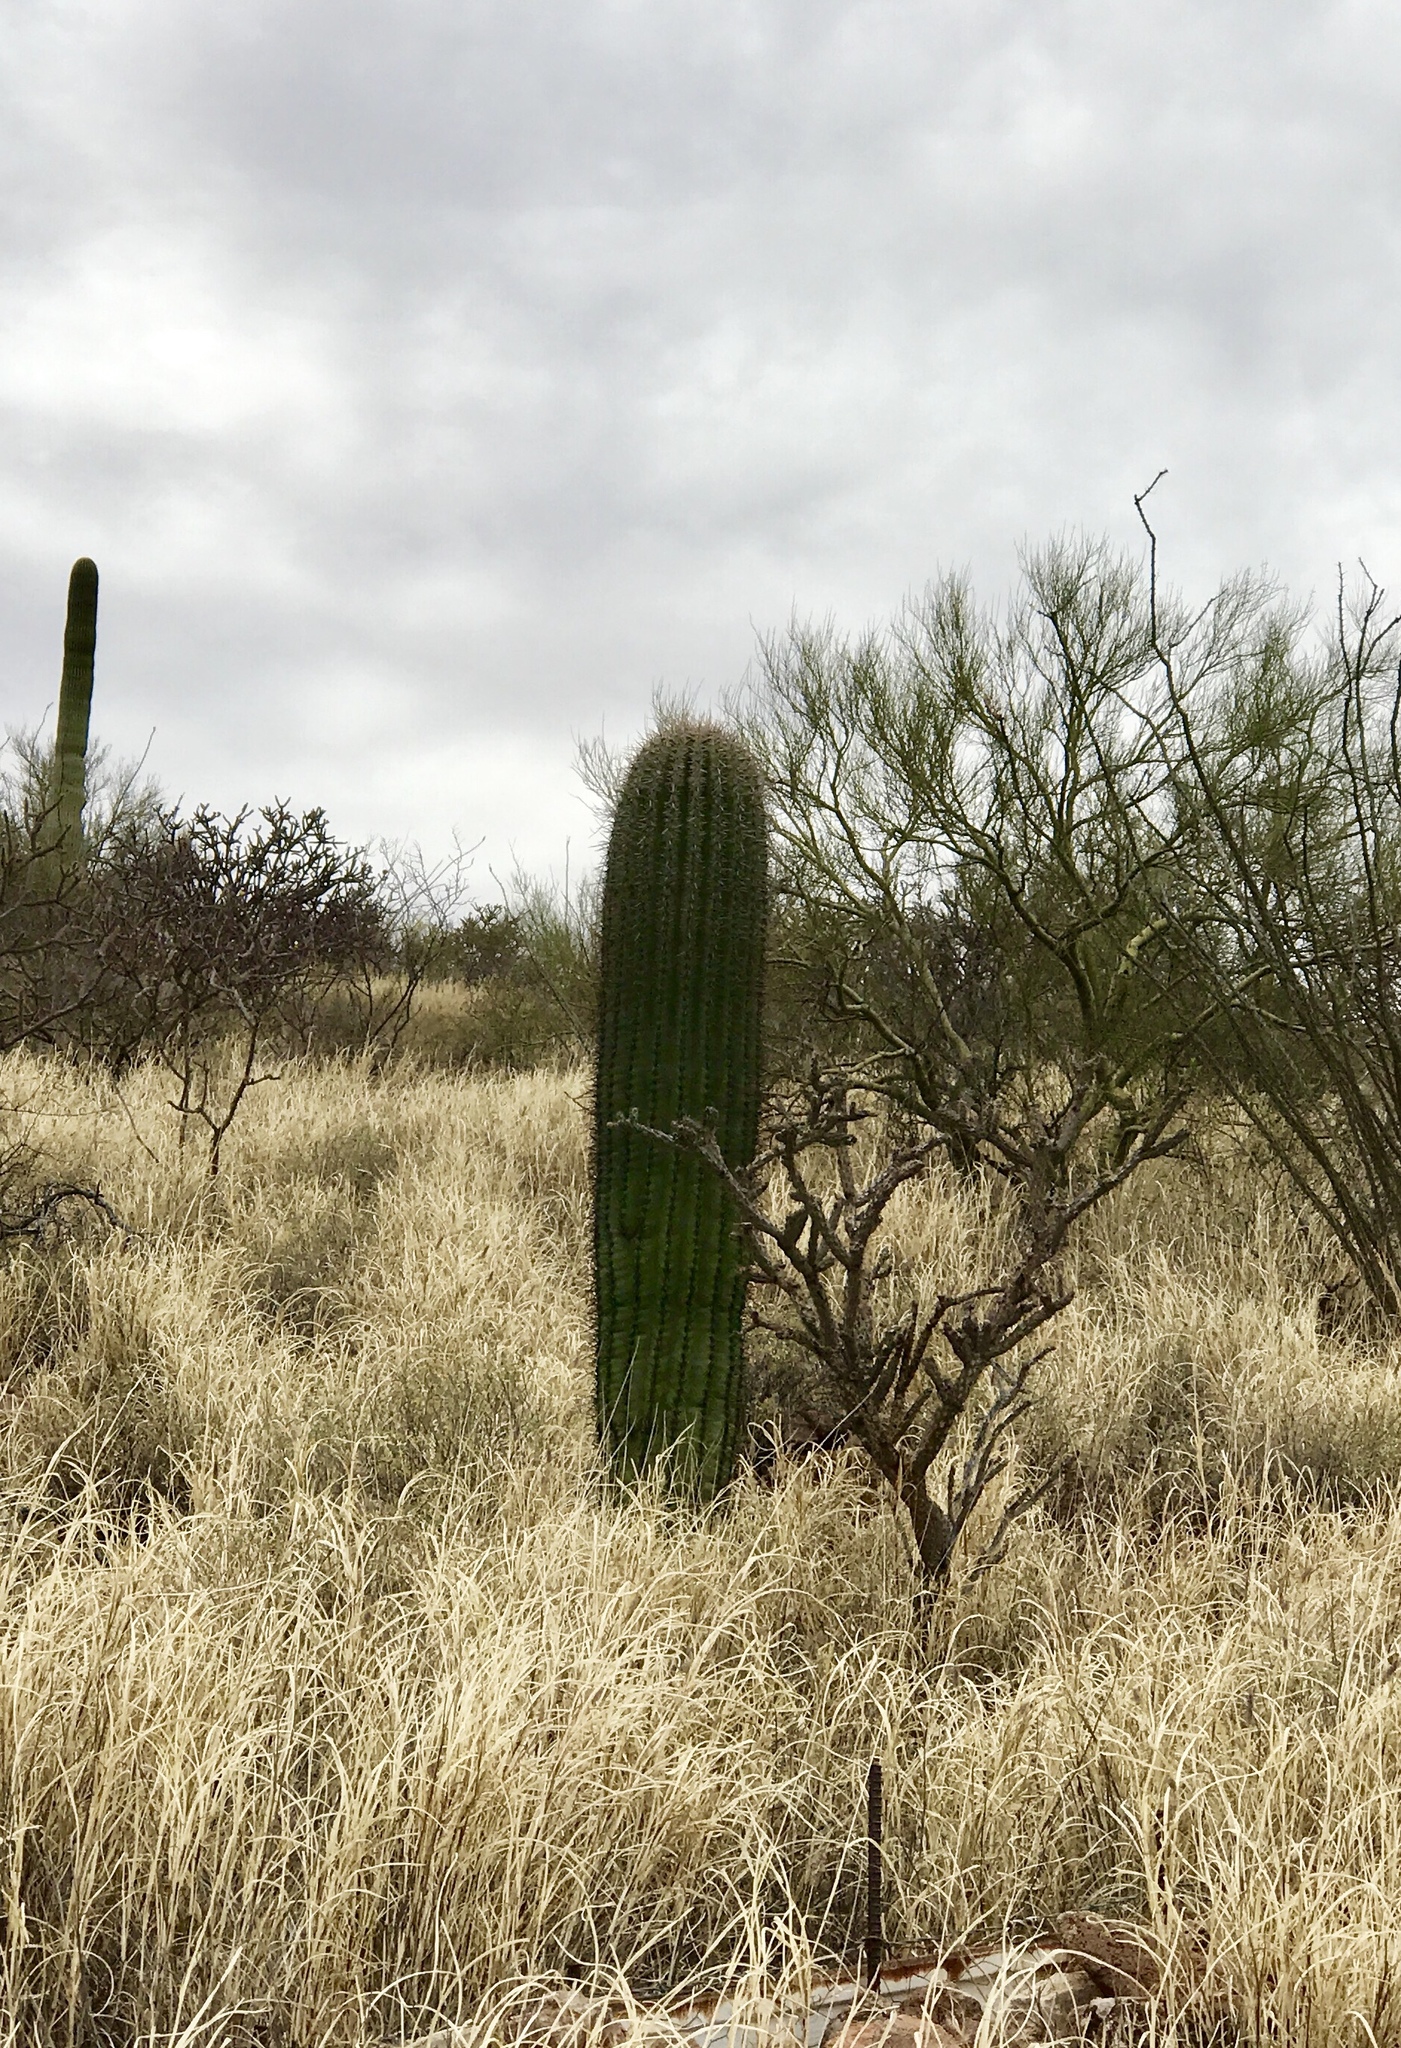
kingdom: Plantae
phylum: Tracheophyta
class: Magnoliopsida
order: Caryophyllales
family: Cactaceae
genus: Carnegiea
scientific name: Carnegiea gigantea
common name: Saguaro
